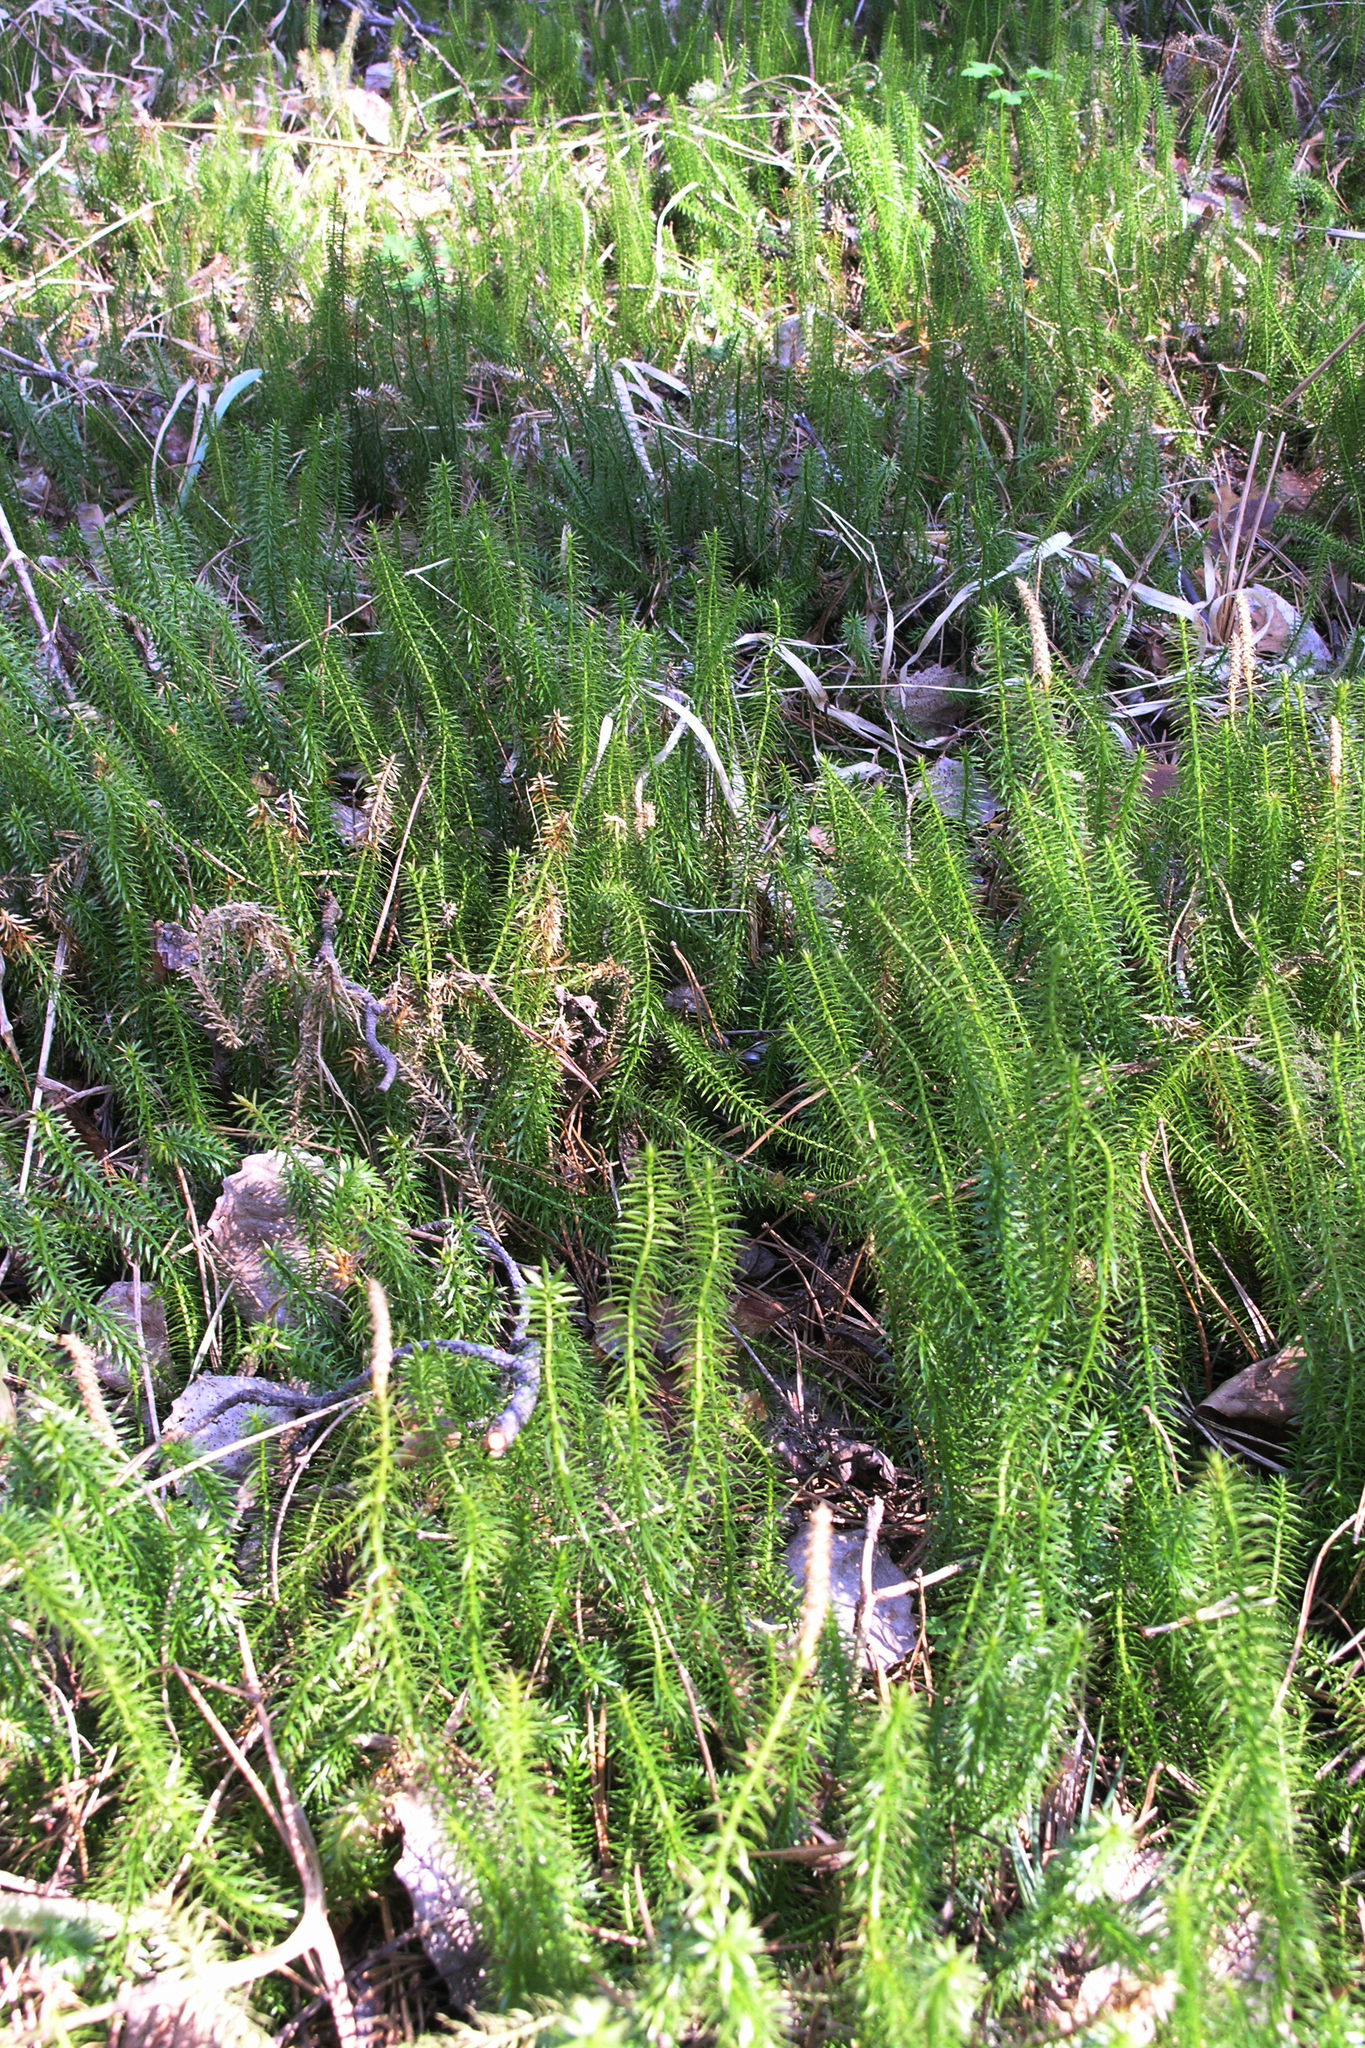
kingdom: Plantae
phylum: Tracheophyta
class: Lycopodiopsida
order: Lycopodiales
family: Lycopodiaceae
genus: Spinulum
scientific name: Spinulum annotinum
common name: Interrupted club-moss
